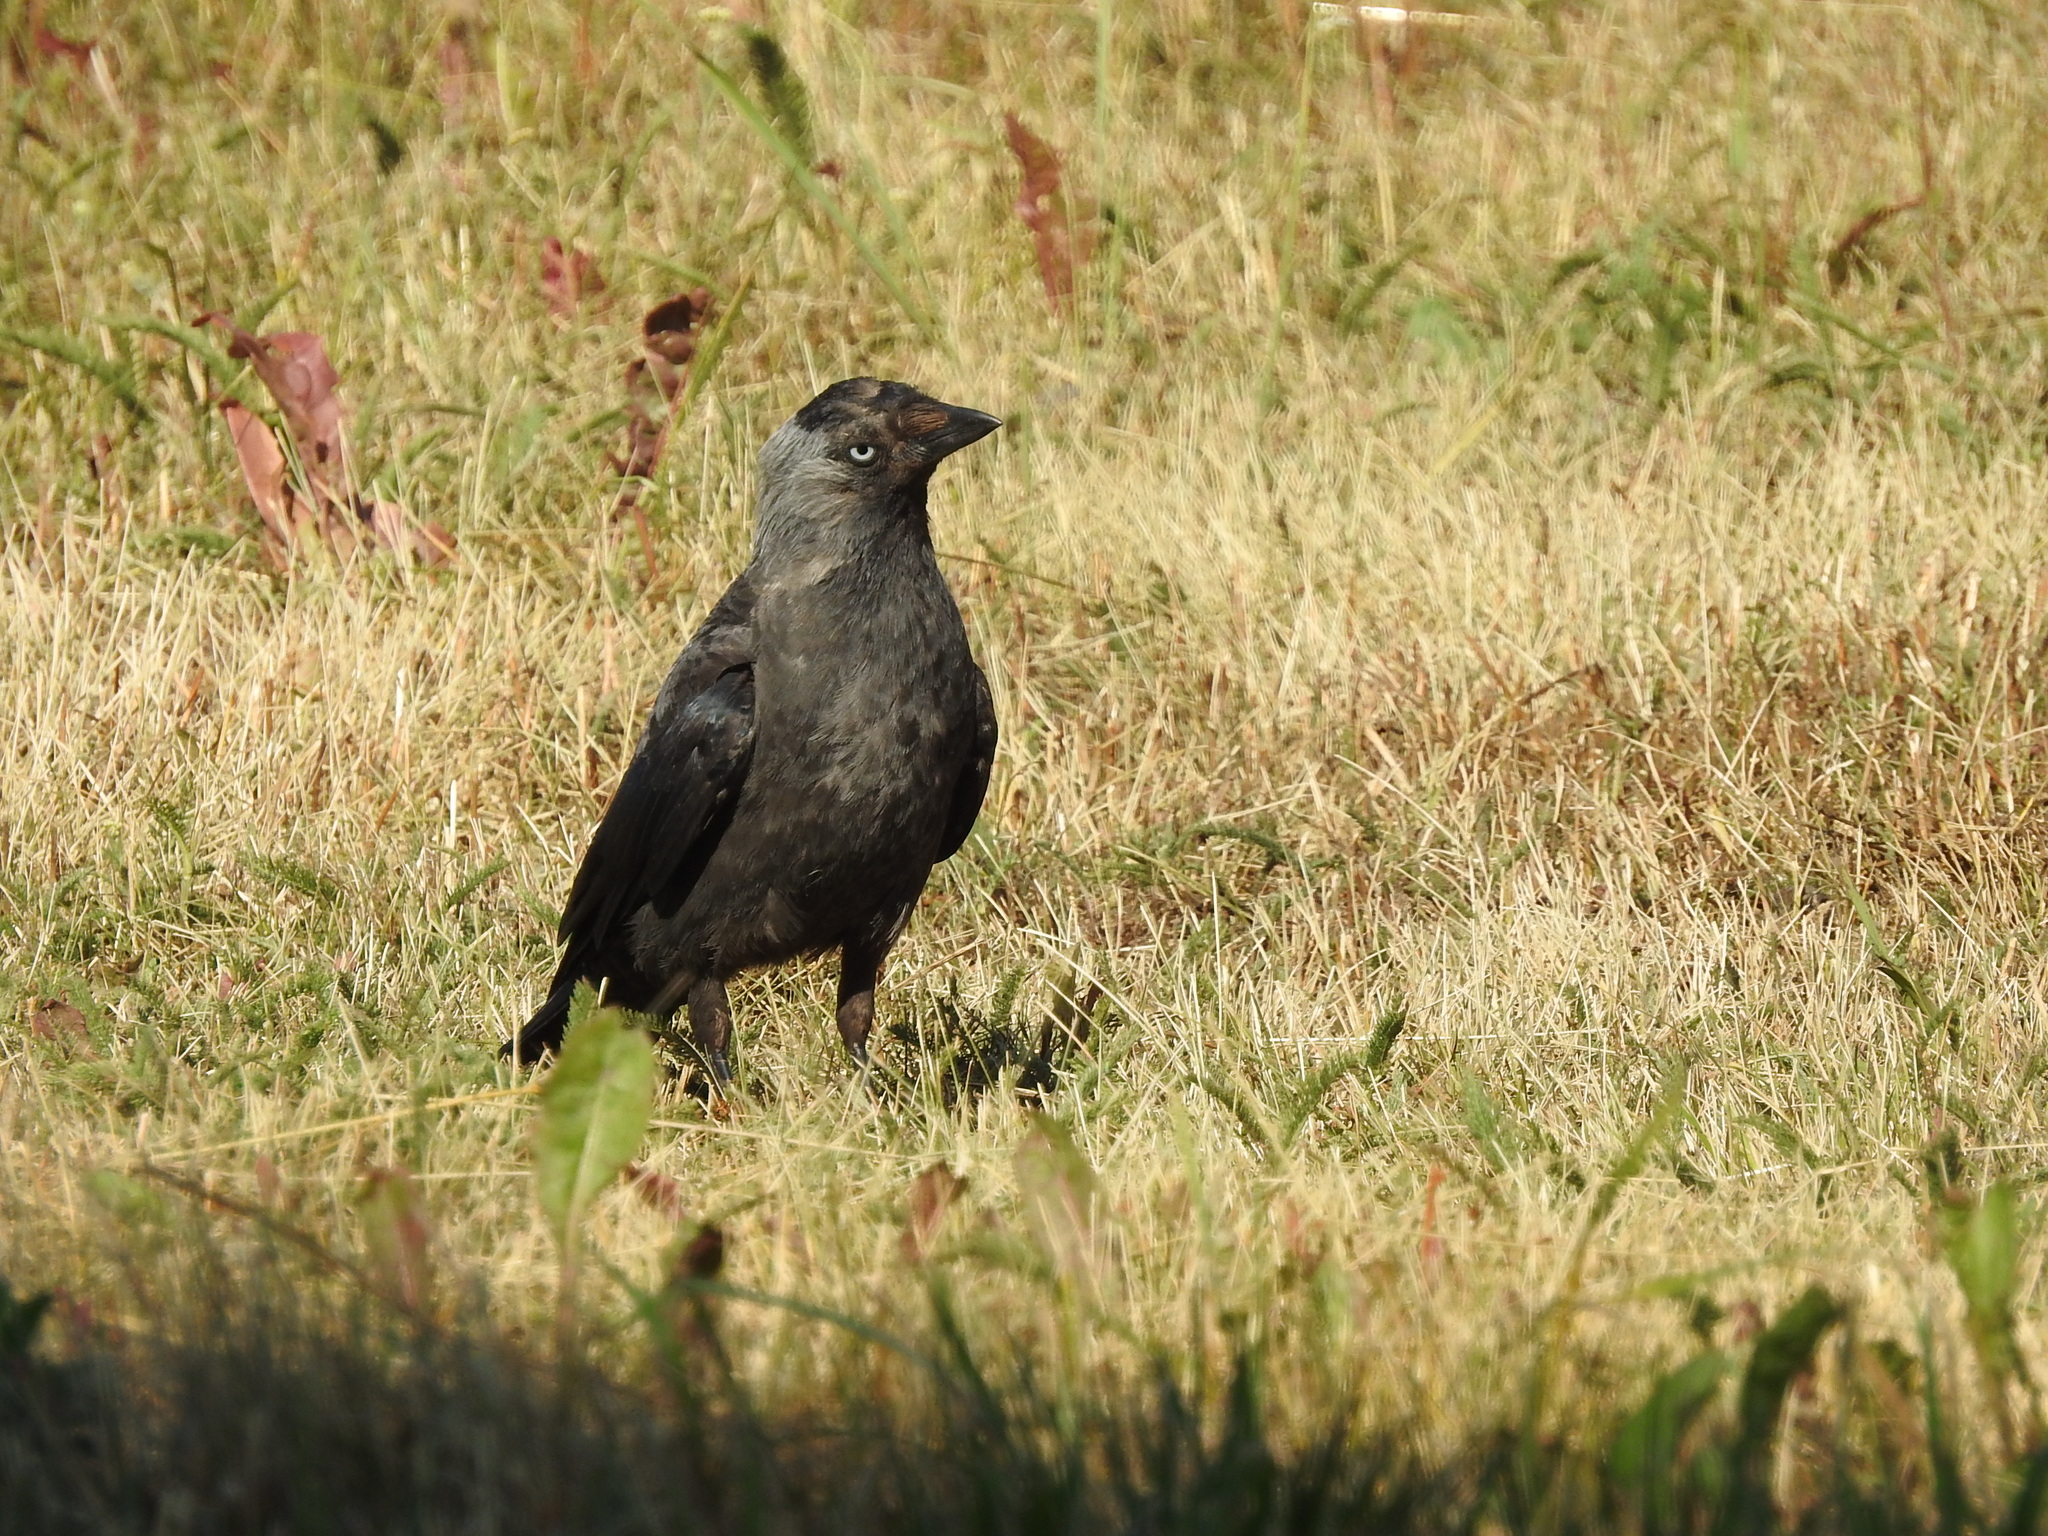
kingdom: Animalia
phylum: Chordata
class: Aves
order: Passeriformes
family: Corvidae
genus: Coloeus
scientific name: Coloeus monedula
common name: Western jackdaw
